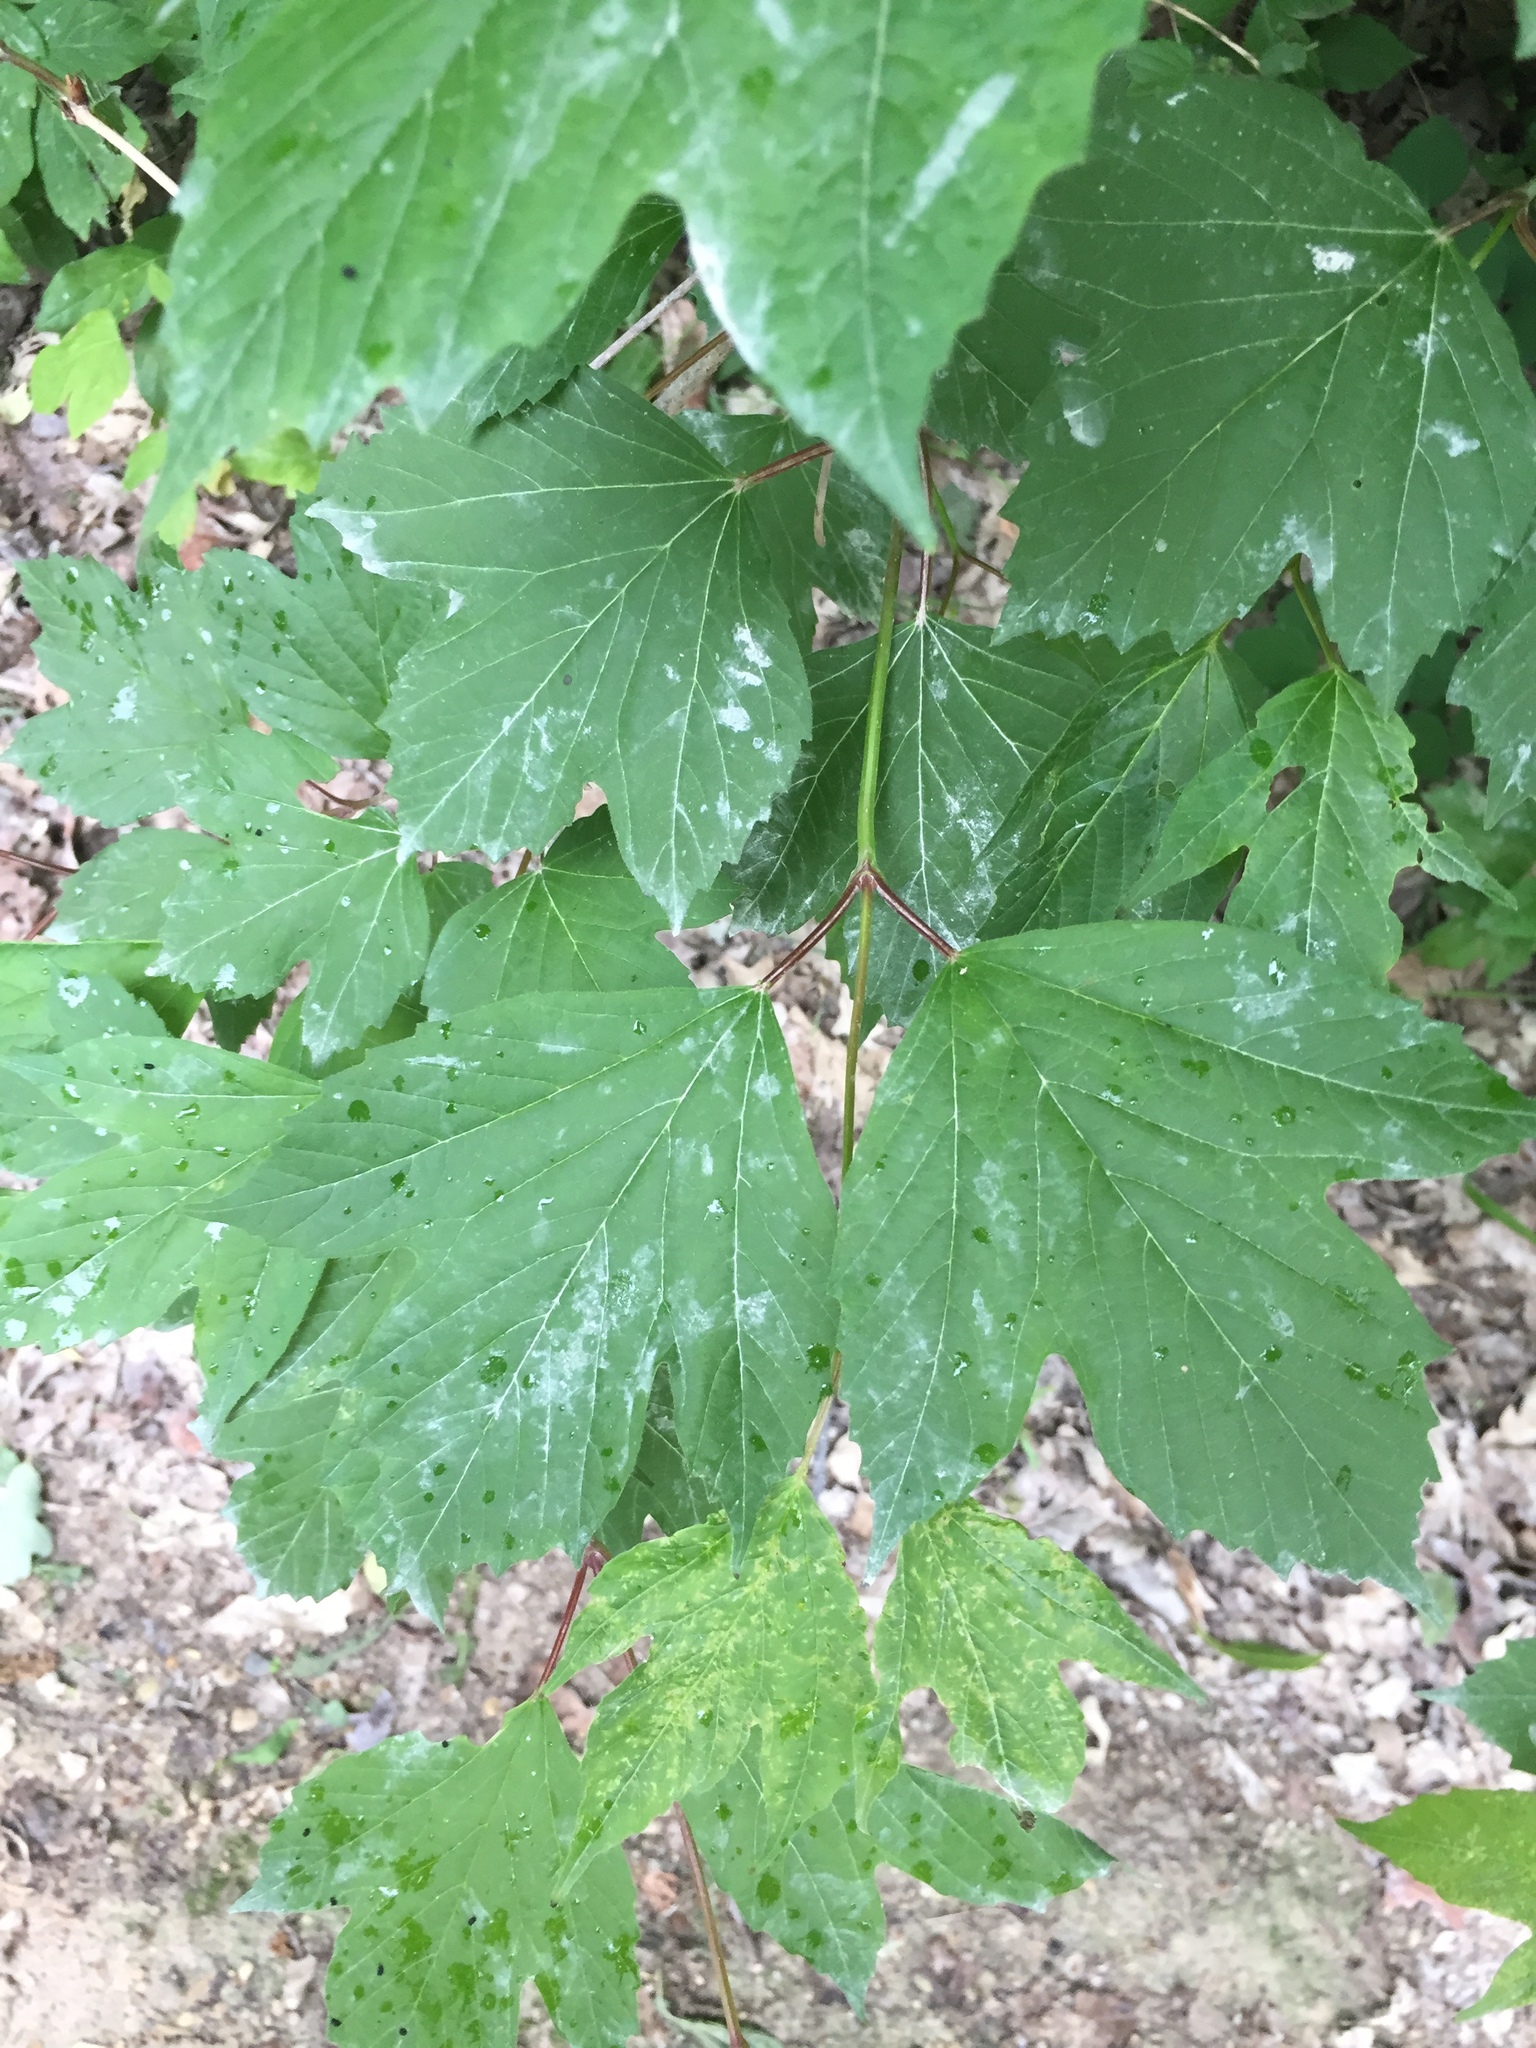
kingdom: Plantae
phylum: Tracheophyta
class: Magnoliopsida
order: Dipsacales
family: Viburnaceae
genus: Viburnum
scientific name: Viburnum trilobum
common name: American cranberrybush
